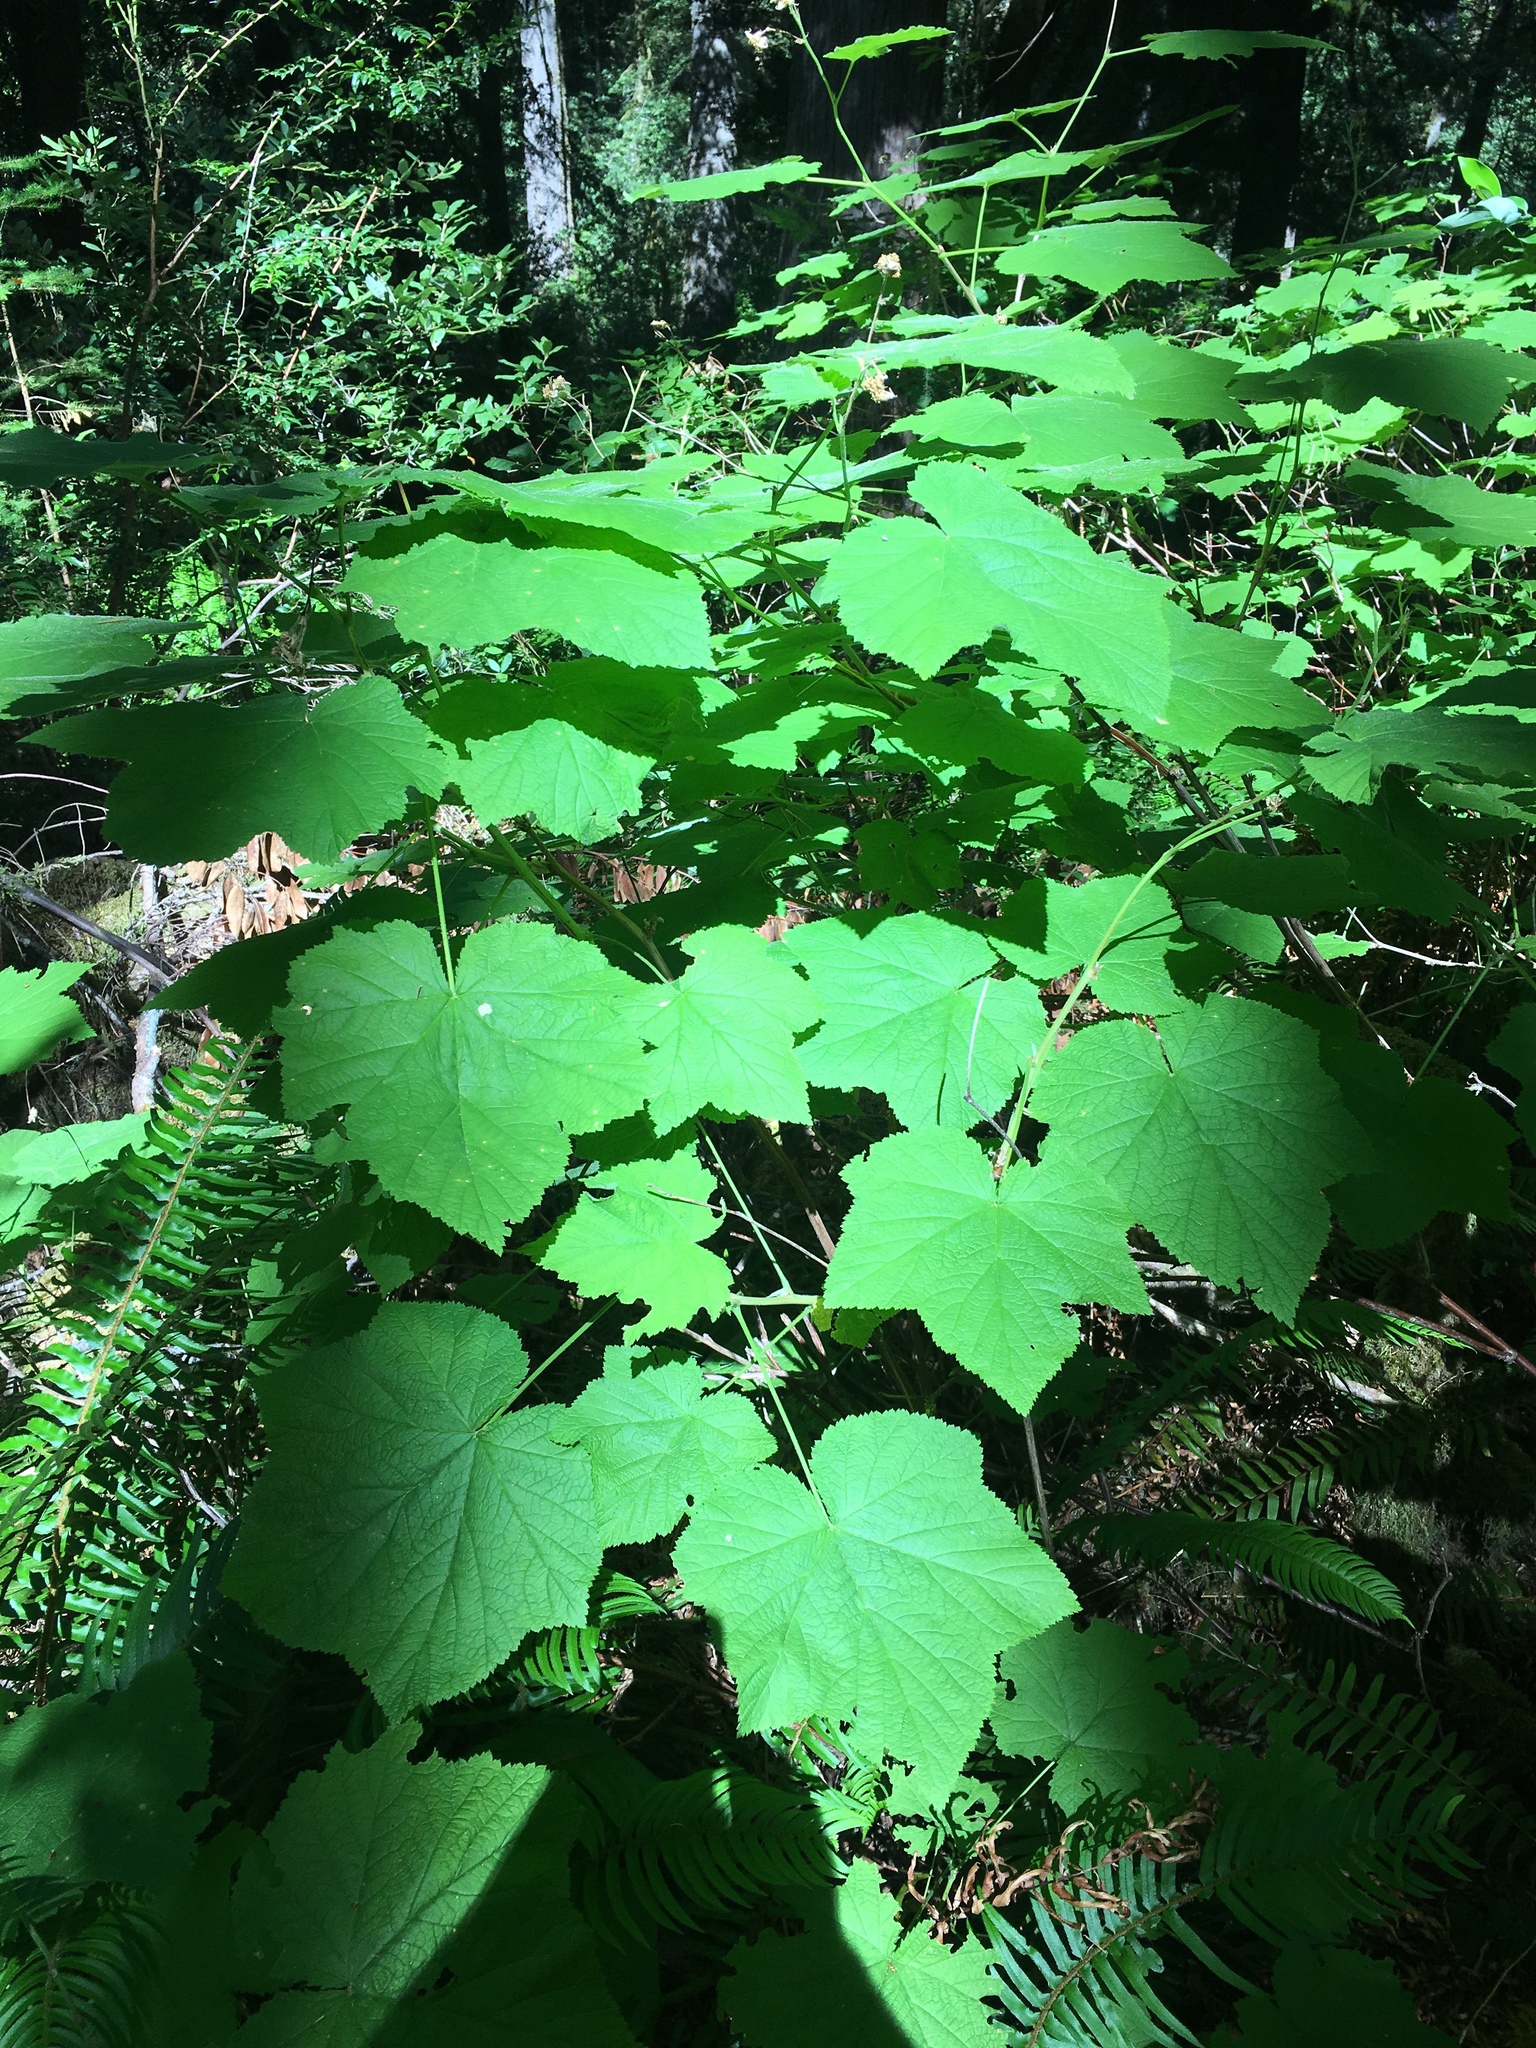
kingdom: Plantae
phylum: Tracheophyta
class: Magnoliopsida
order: Rosales
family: Rosaceae
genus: Rubus
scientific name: Rubus parviflorus
